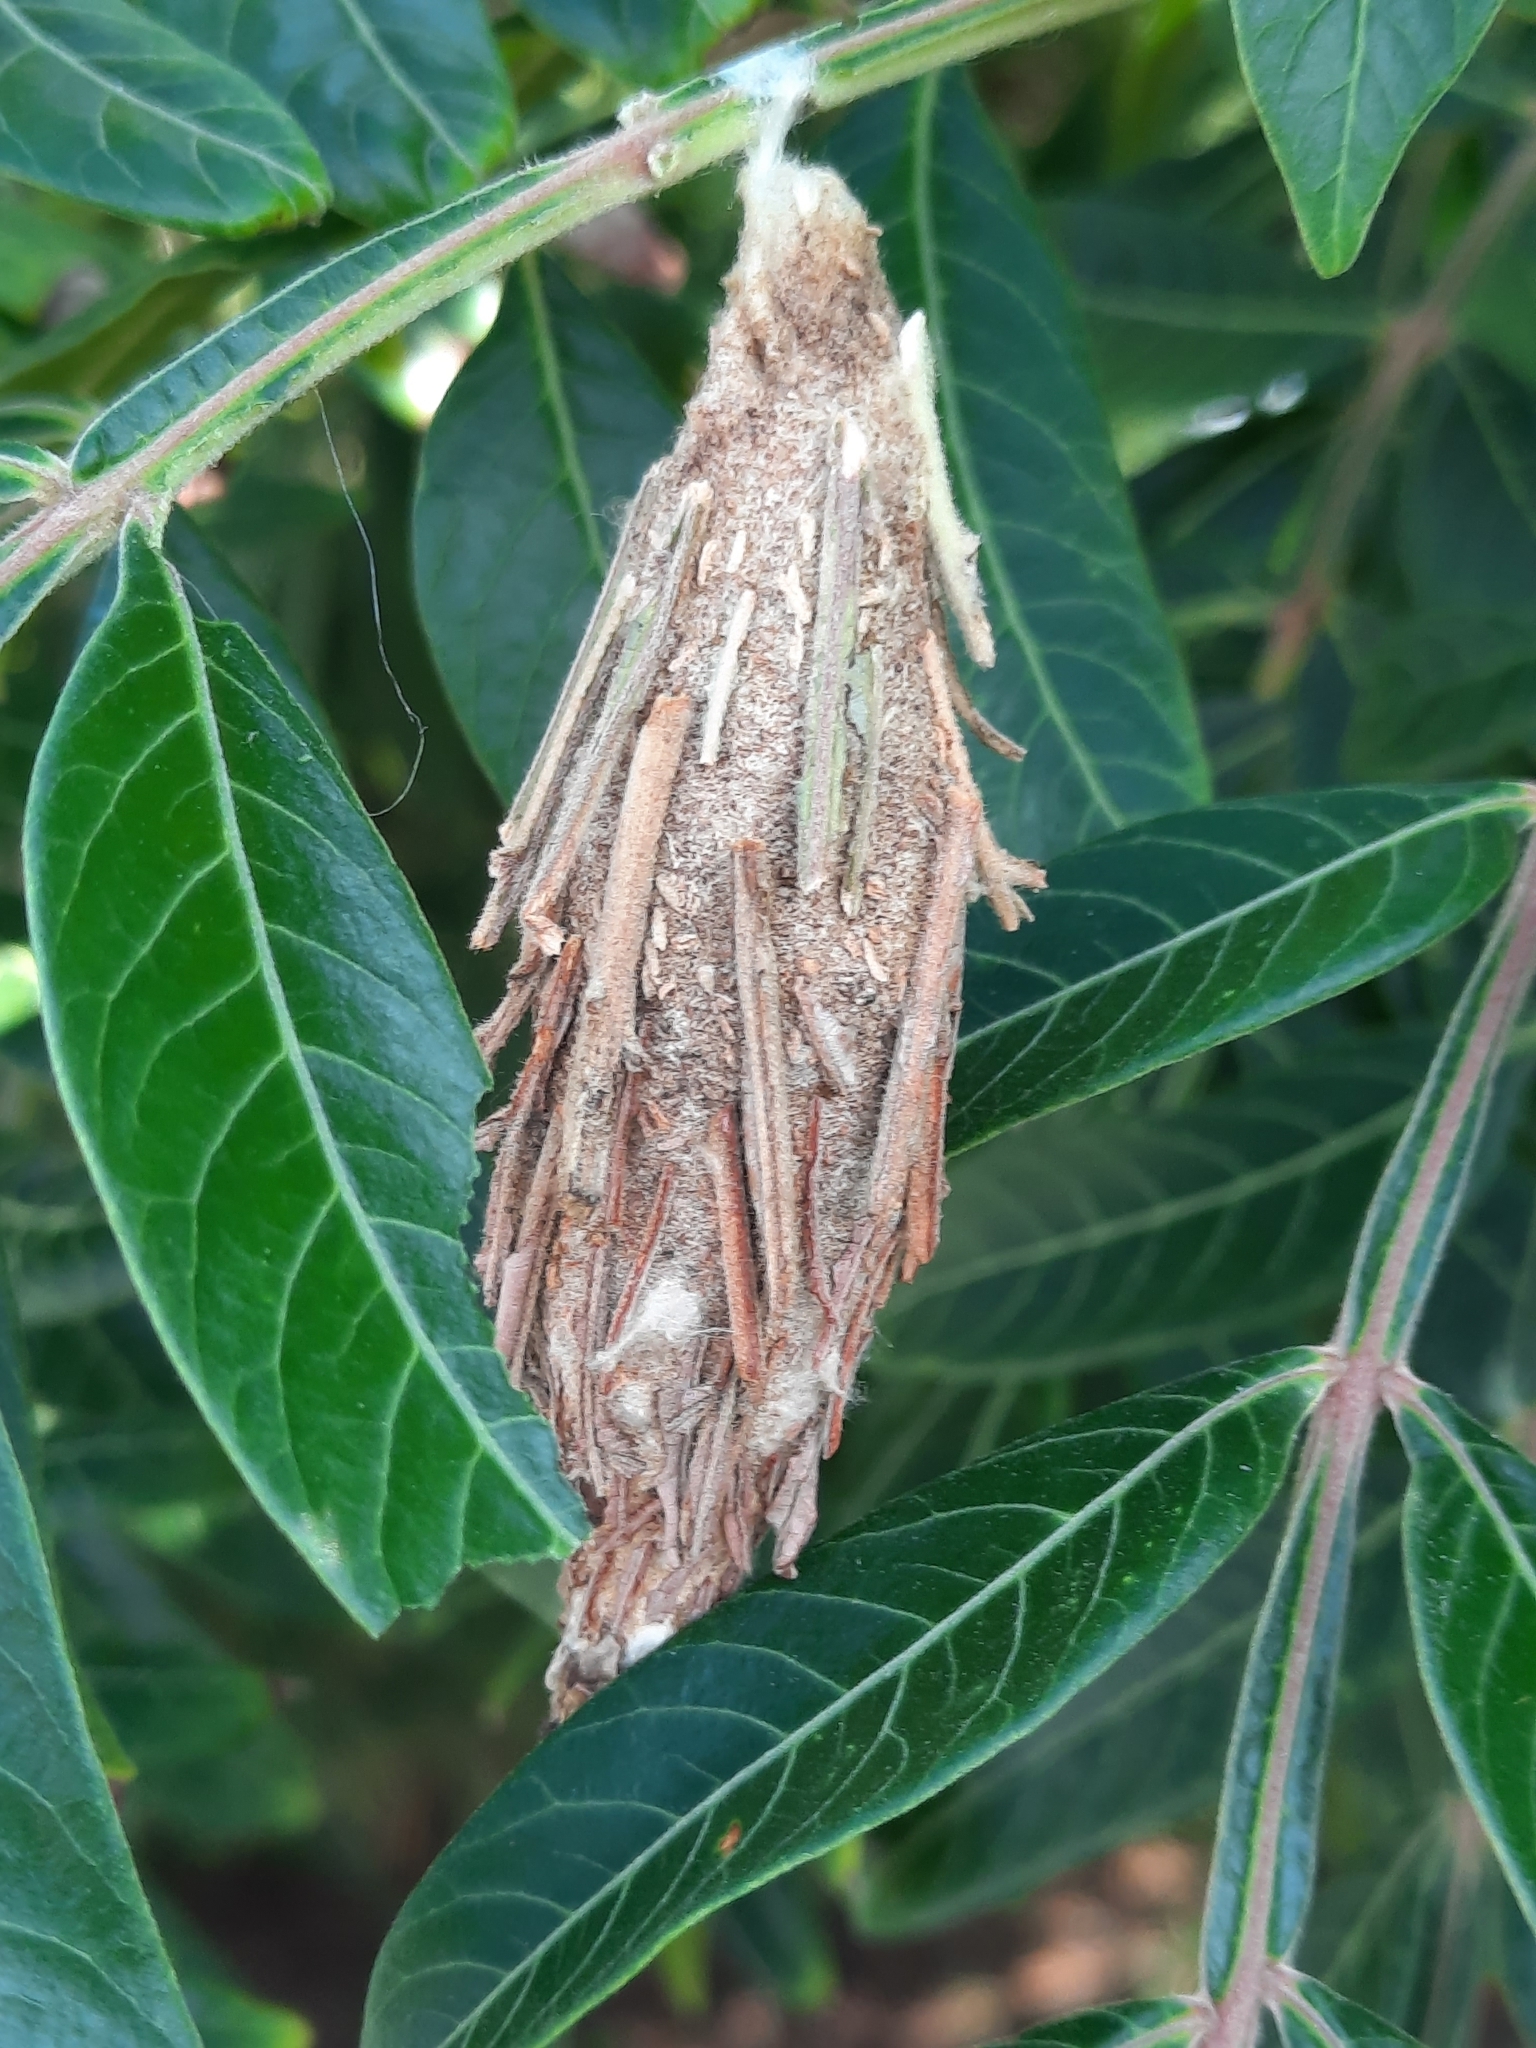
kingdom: Animalia
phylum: Arthropoda
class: Insecta
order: Lepidoptera
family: Psychidae
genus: Thyridopteryx
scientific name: Thyridopteryx ephemeraeformis
